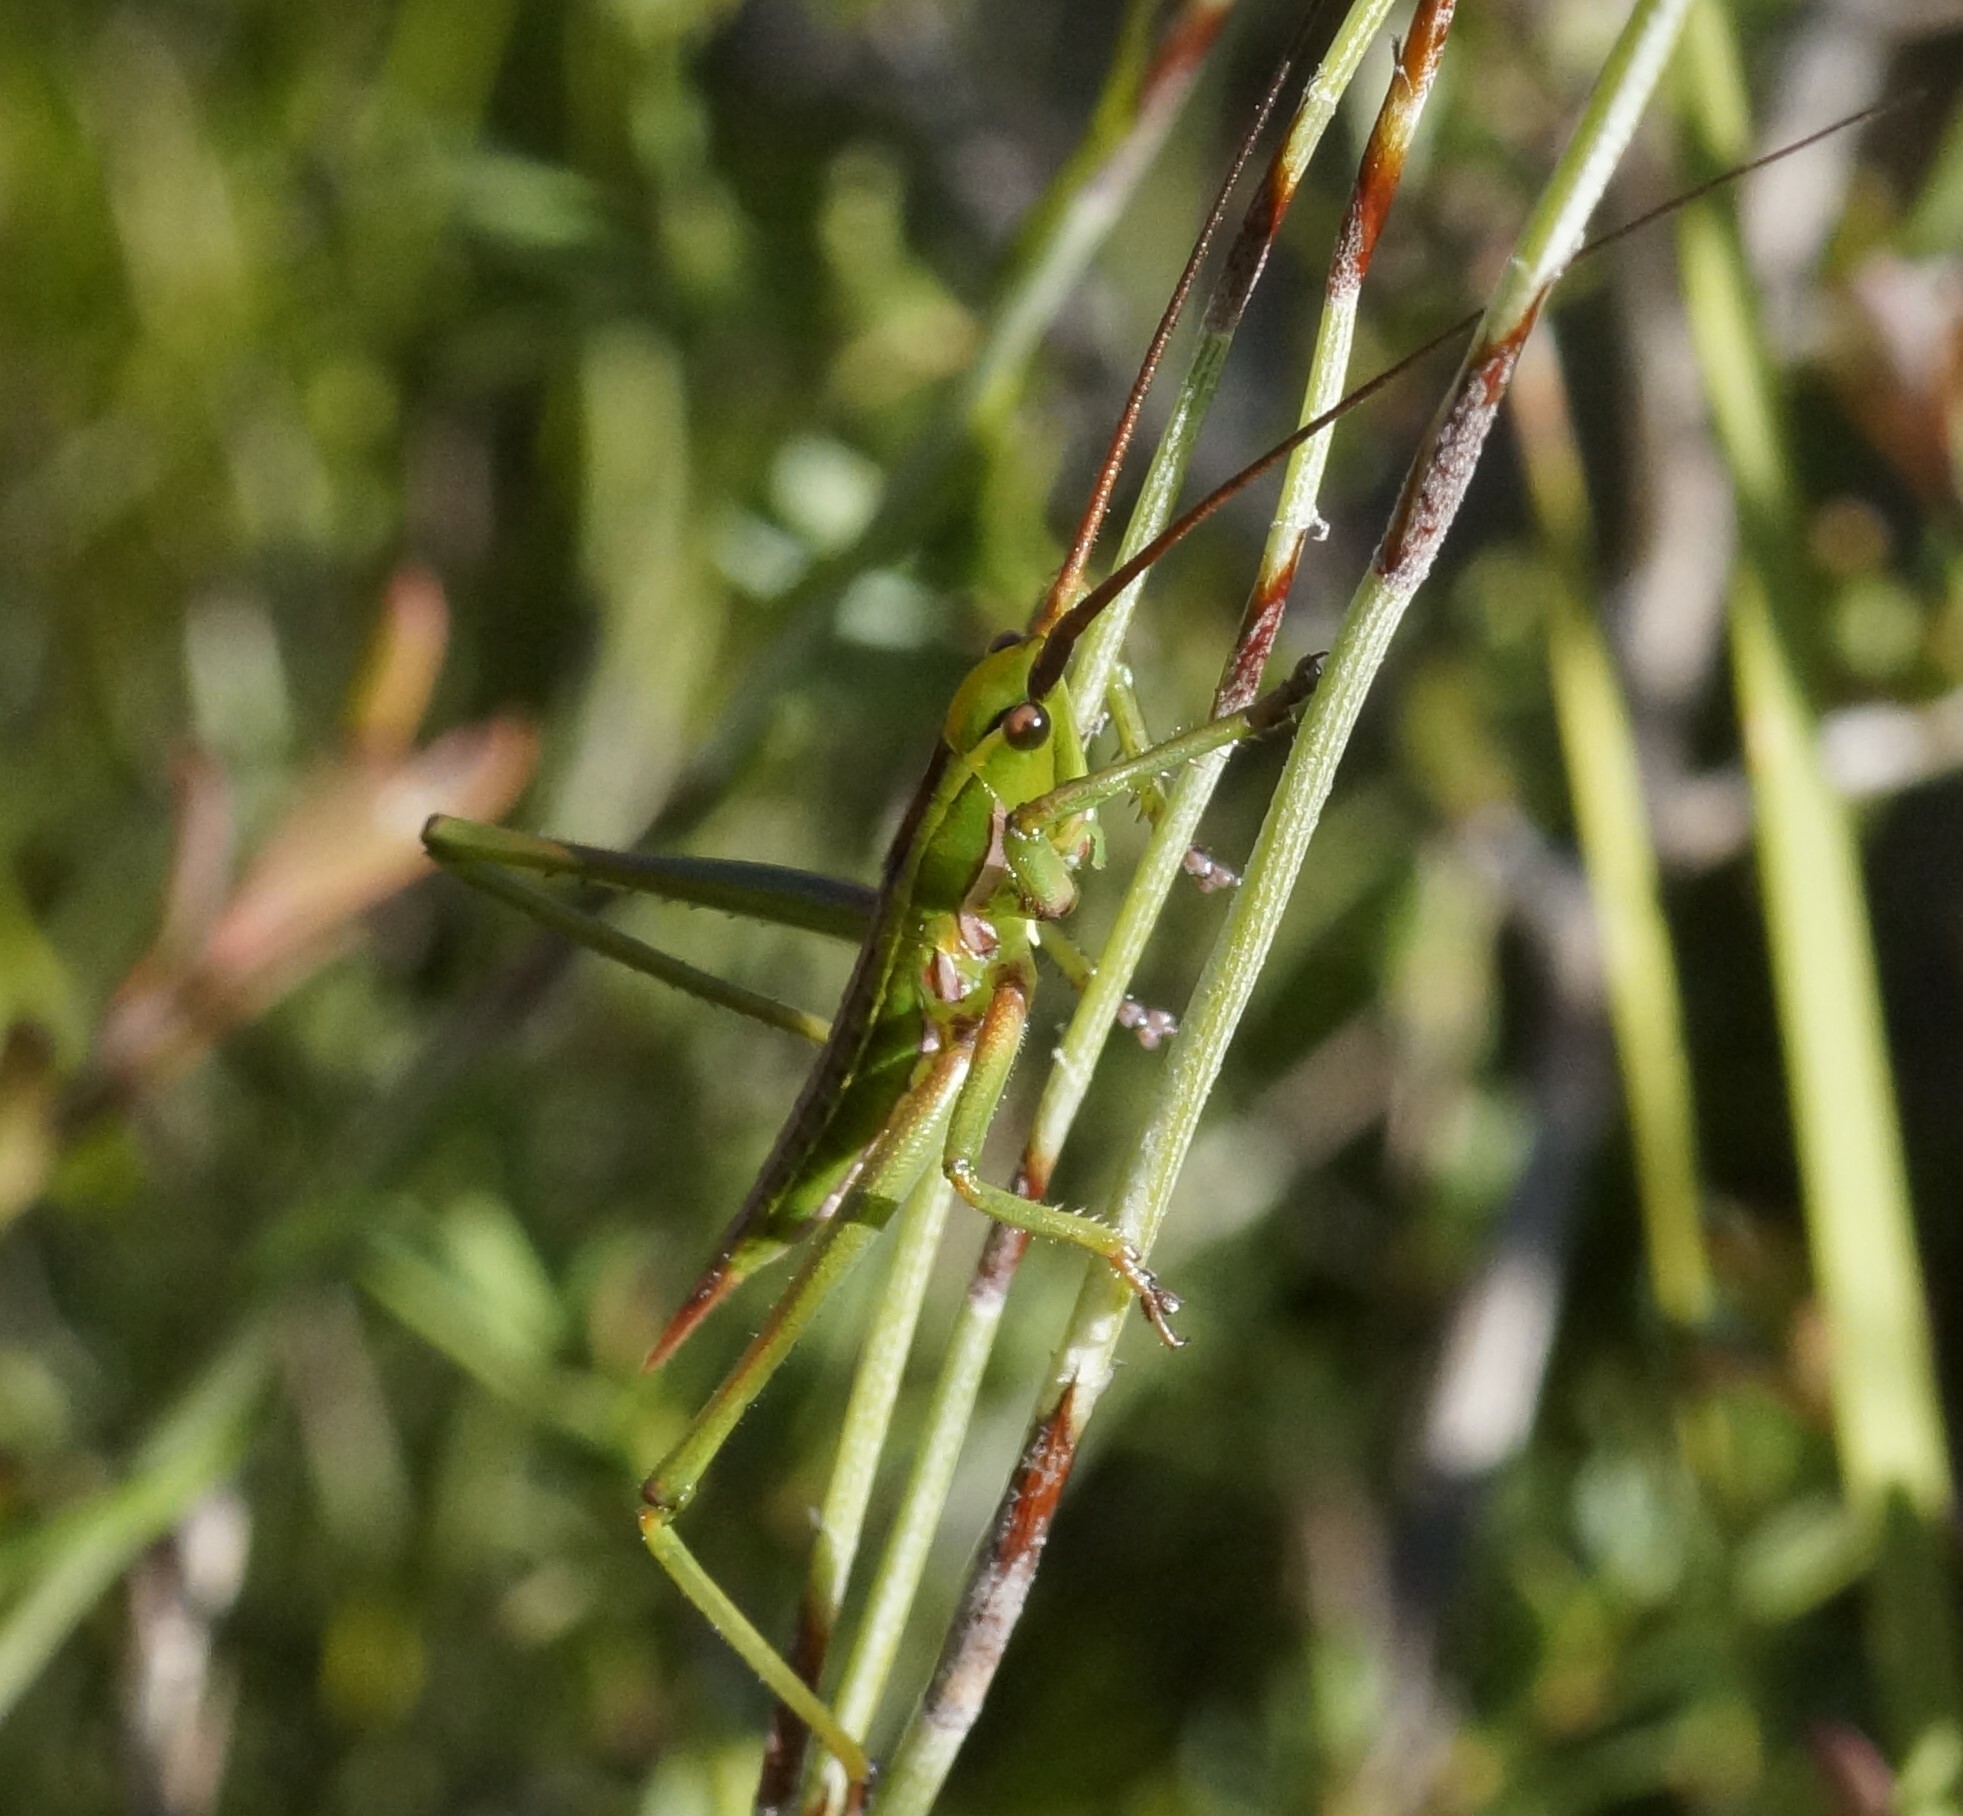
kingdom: Animalia
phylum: Arthropoda
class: Insecta
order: Orthoptera
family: Tettigoniidae
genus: Hemisaga
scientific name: Hemisaga lanceolata
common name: Victorian sluggish katydid
